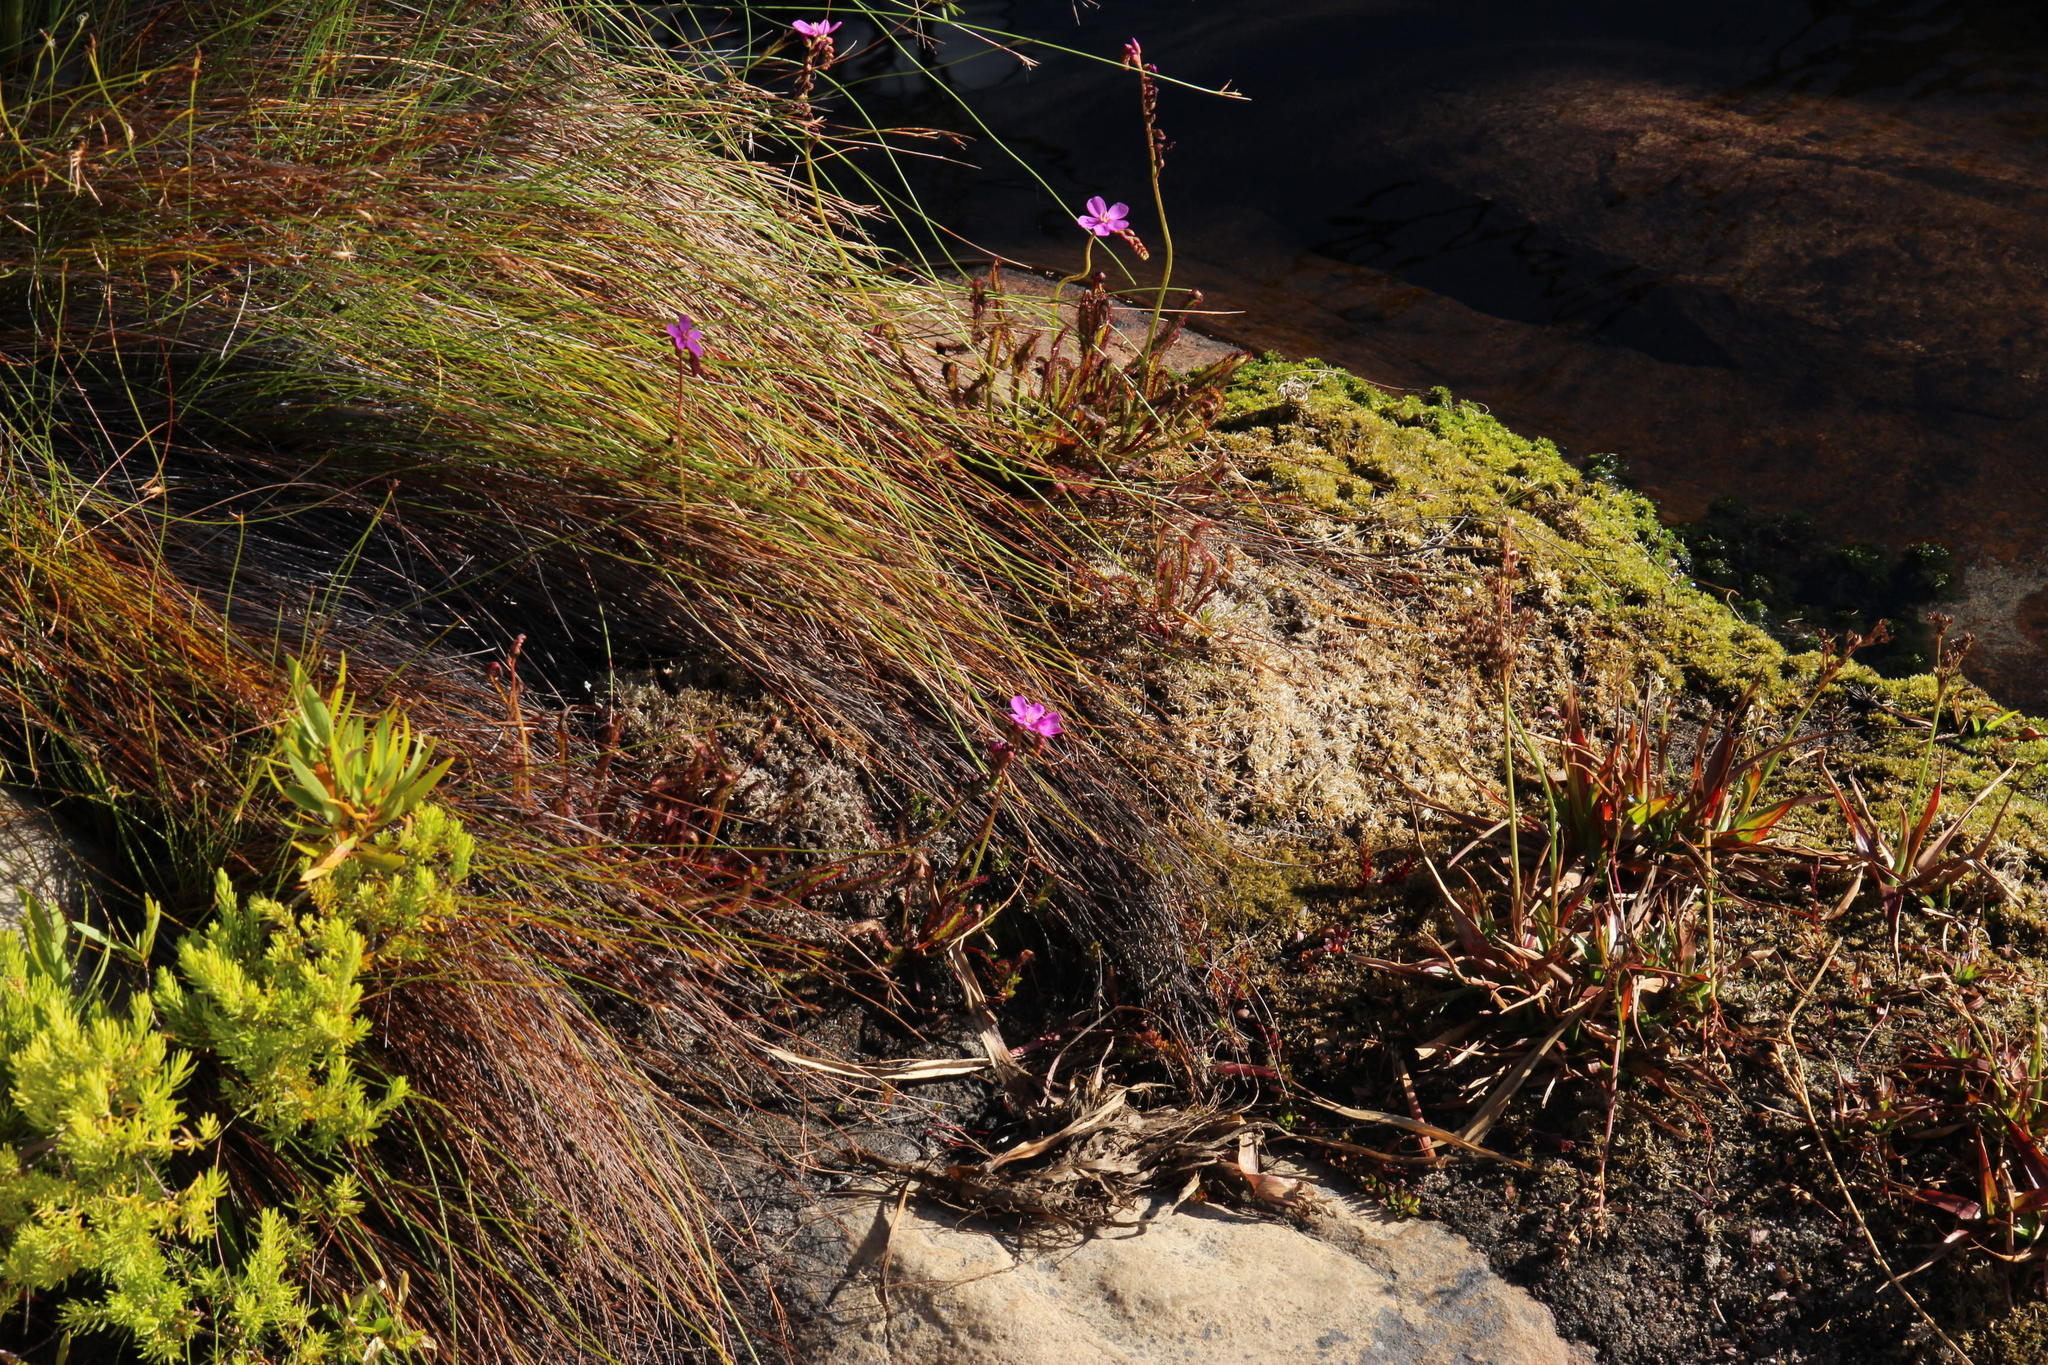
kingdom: Plantae
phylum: Tracheophyta
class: Magnoliopsida
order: Caryophyllales
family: Droseraceae
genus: Drosera
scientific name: Drosera capensis
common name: Cape sundew
